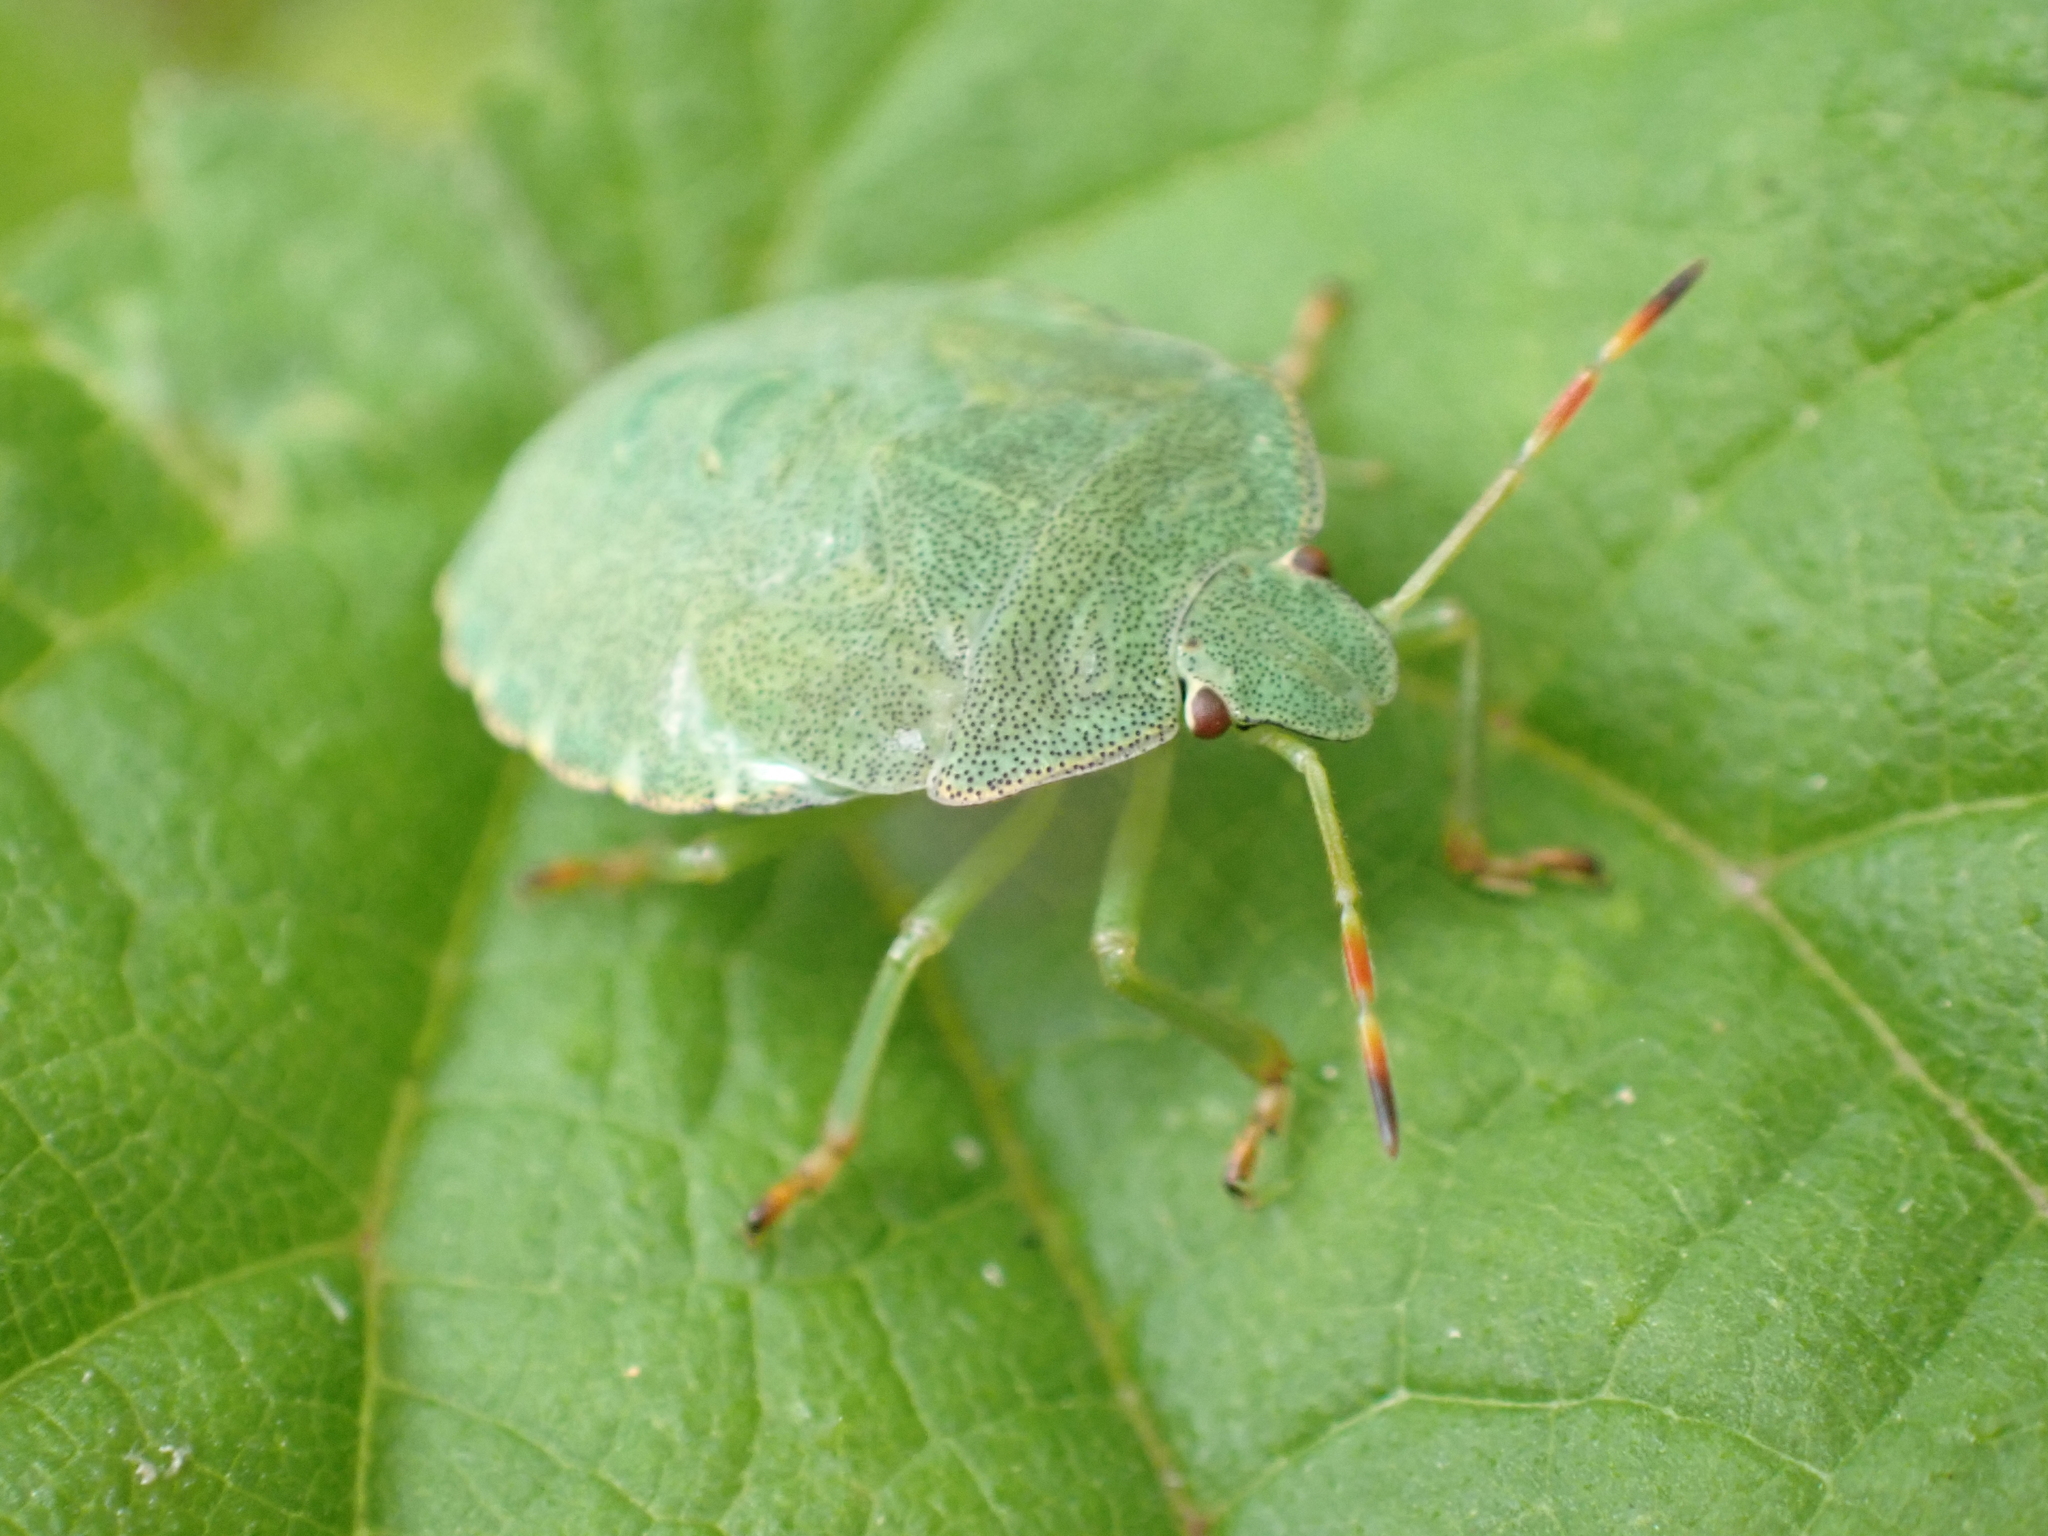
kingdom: Animalia
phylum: Arthropoda
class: Insecta
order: Hemiptera
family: Pentatomidae
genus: Palomena
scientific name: Palomena prasina
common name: Green shieldbug
